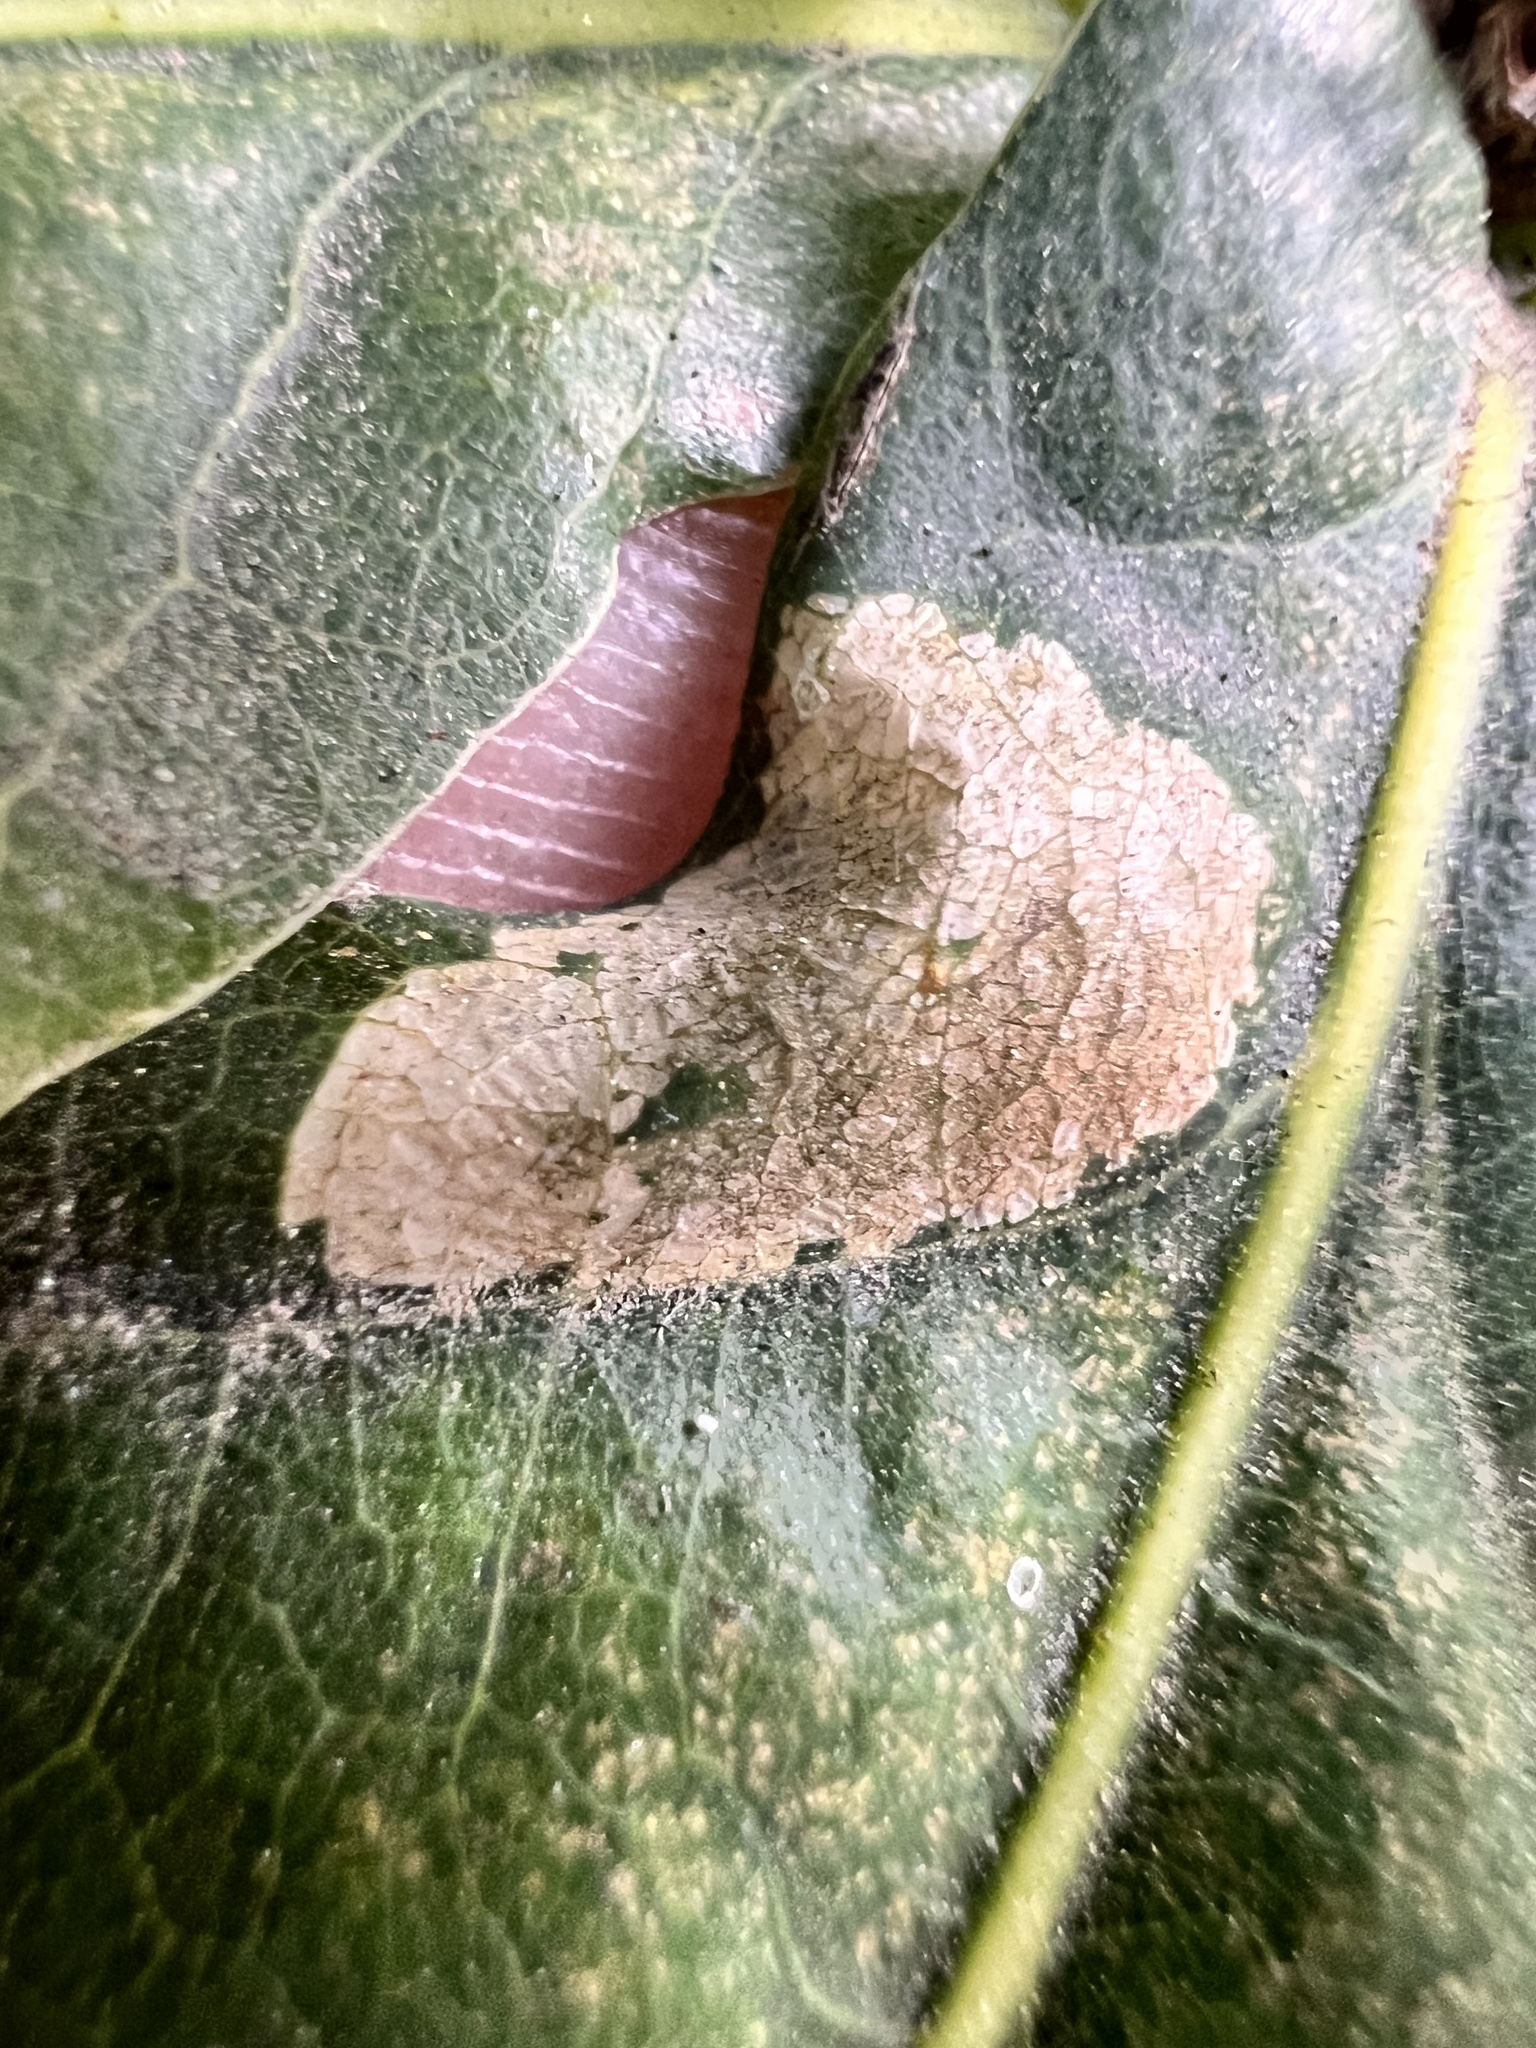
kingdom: Animalia
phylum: Arthropoda
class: Insecta
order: Lepidoptera
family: Gracillariidae
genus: Phyllonorycter
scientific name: Phyllonorycter messaniella
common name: Garden midget
